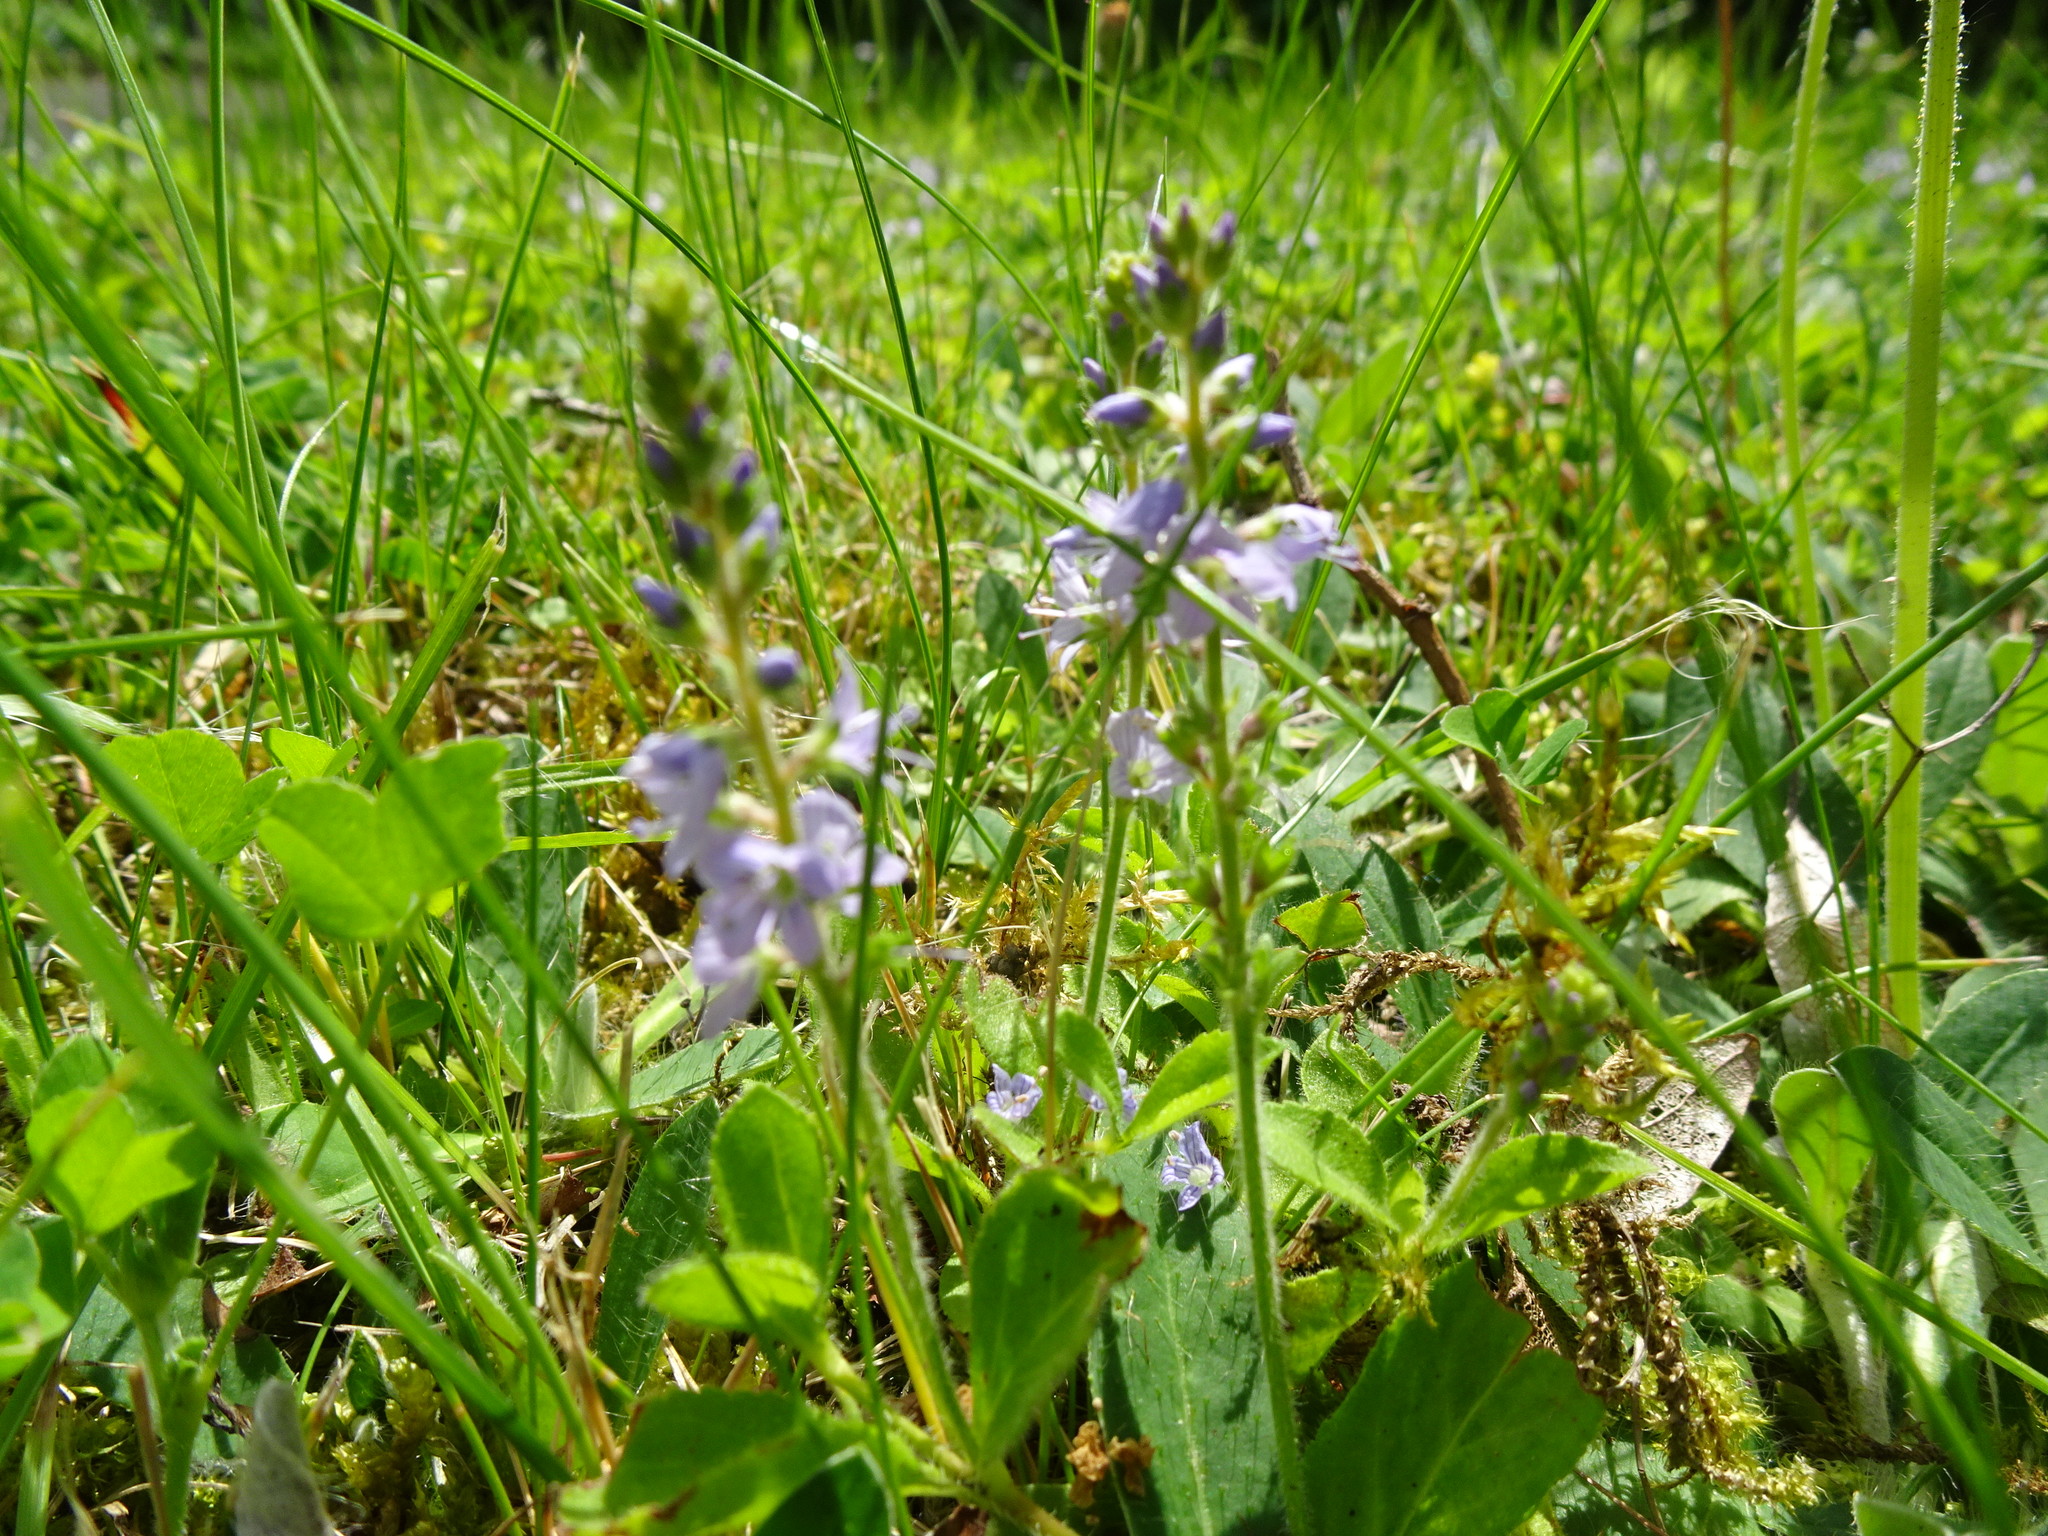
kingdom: Plantae
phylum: Tracheophyta
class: Magnoliopsida
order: Lamiales
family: Plantaginaceae
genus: Veronica
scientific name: Veronica officinalis
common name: Common speedwell
